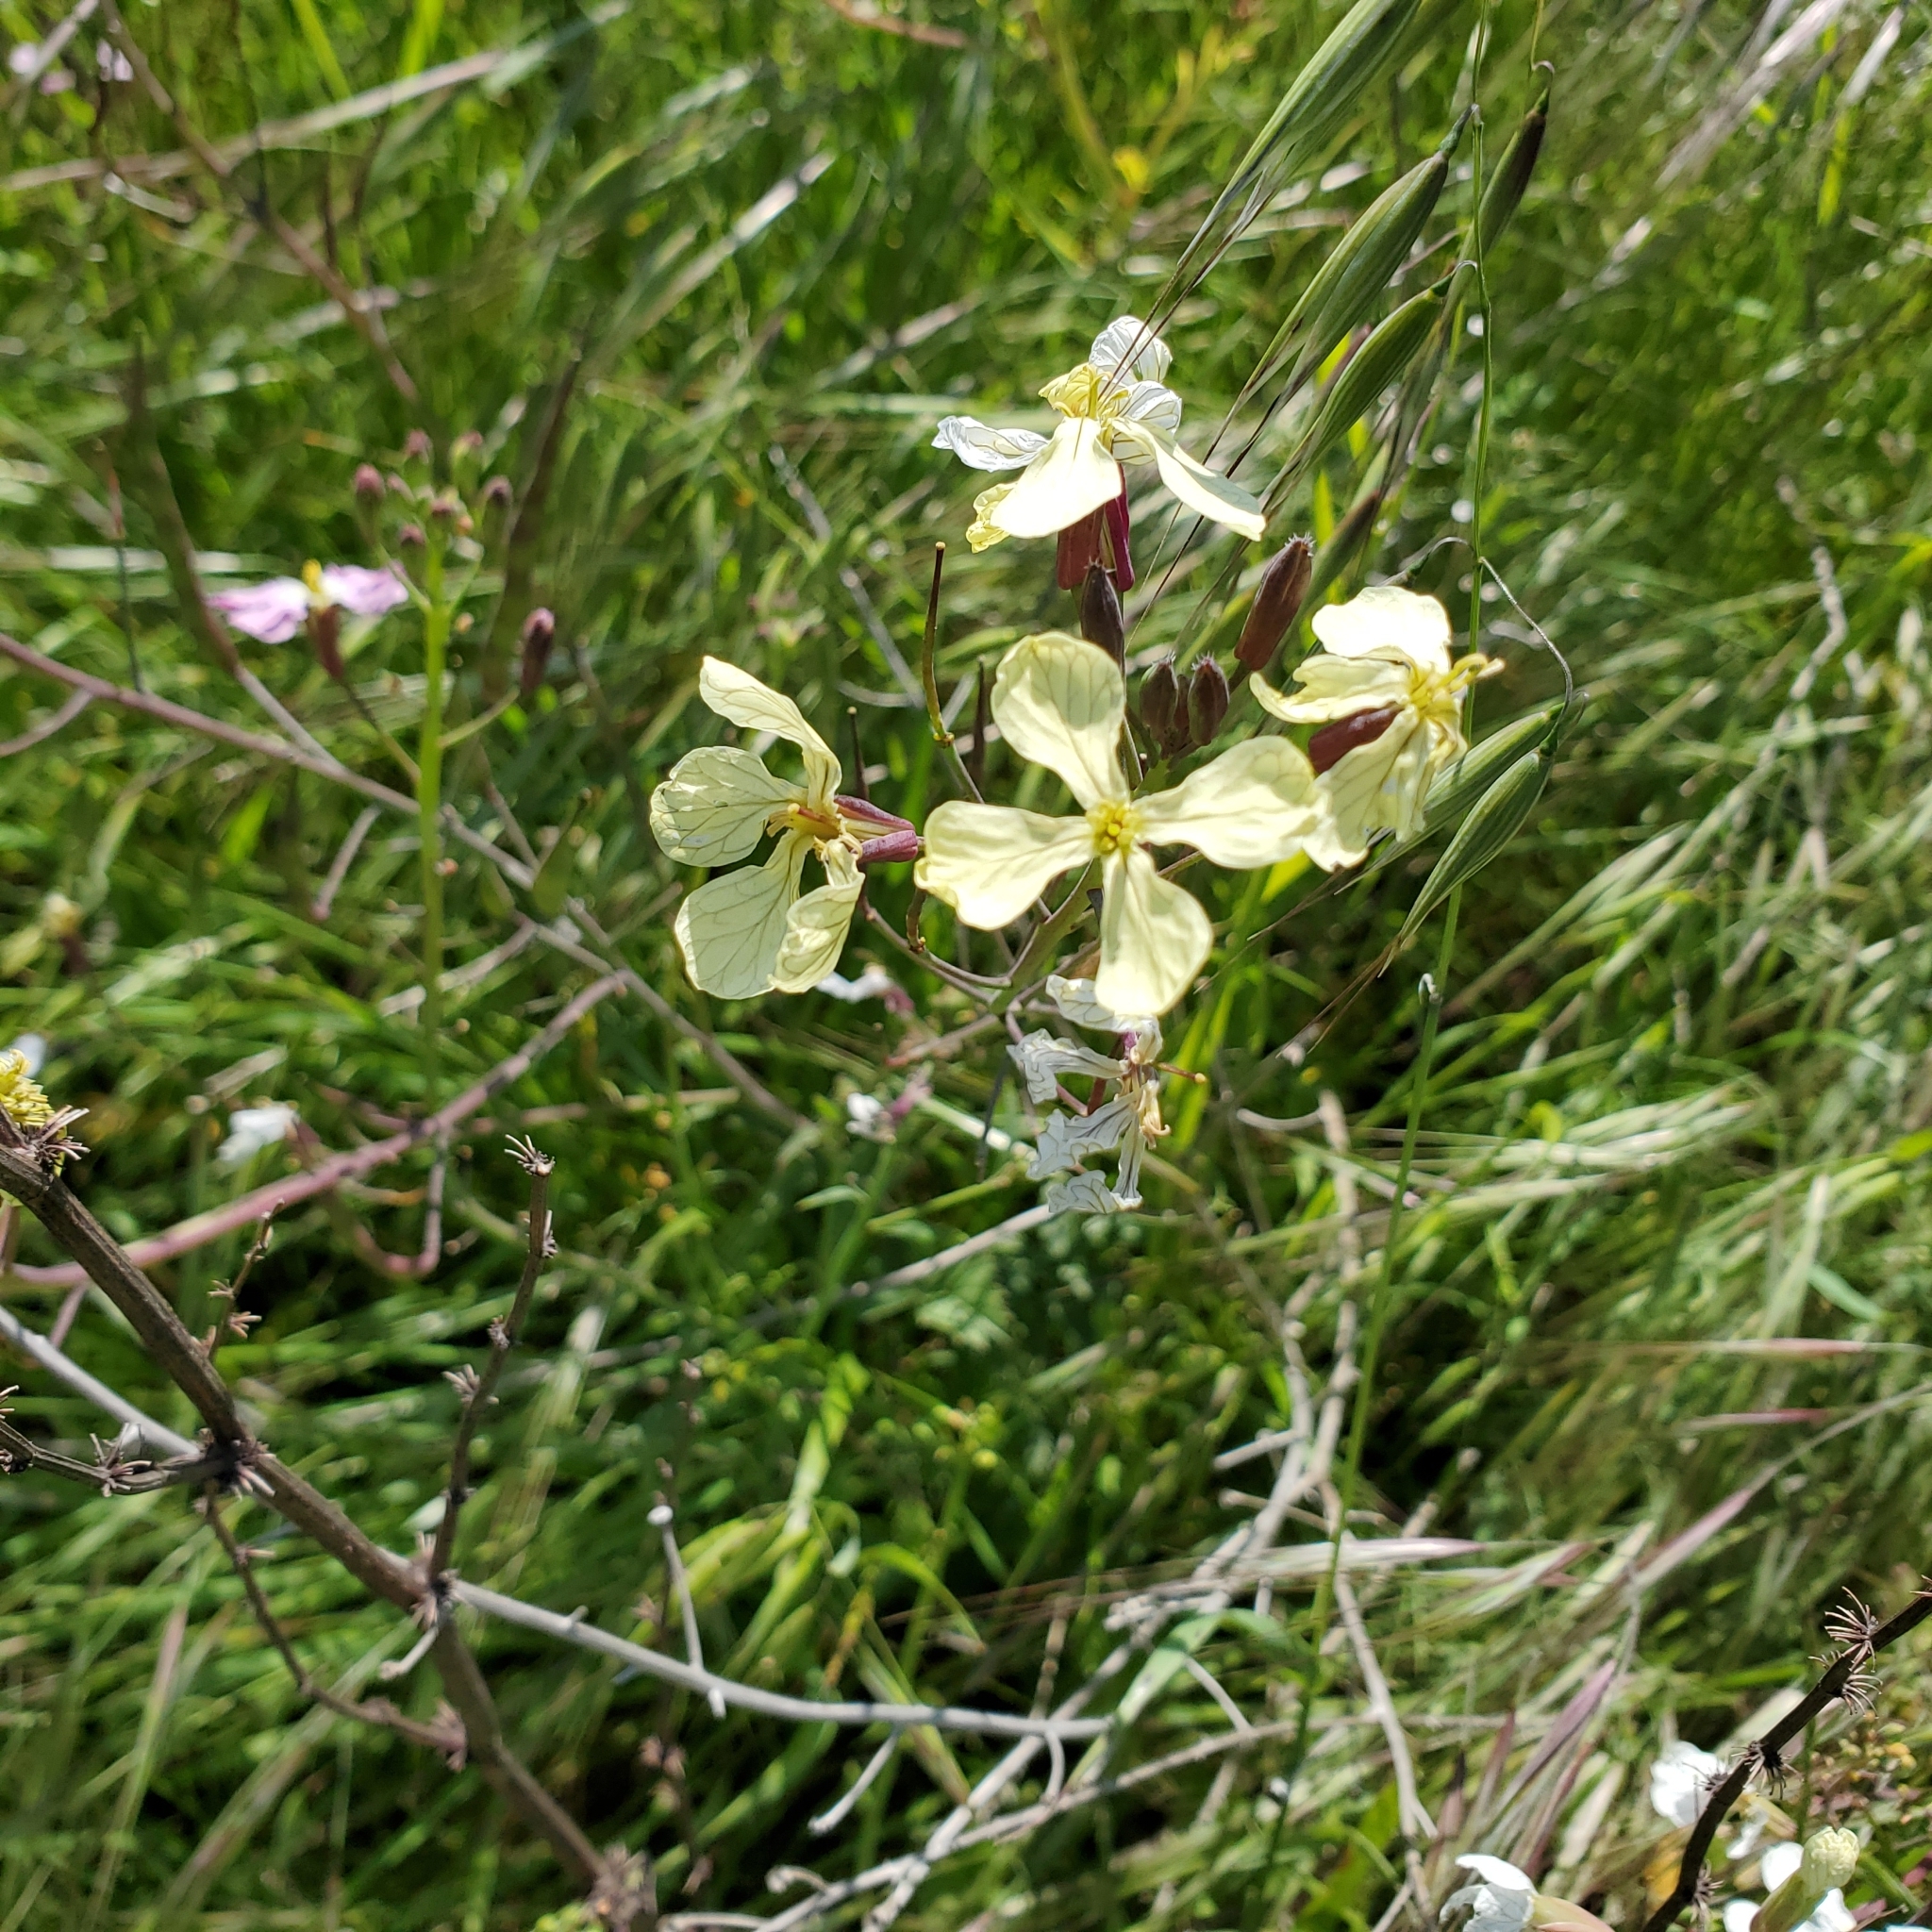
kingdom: Plantae
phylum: Tracheophyta
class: Magnoliopsida
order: Brassicales
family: Brassicaceae
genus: Raphanus
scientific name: Raphanus raphanistrum
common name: Wild radish
